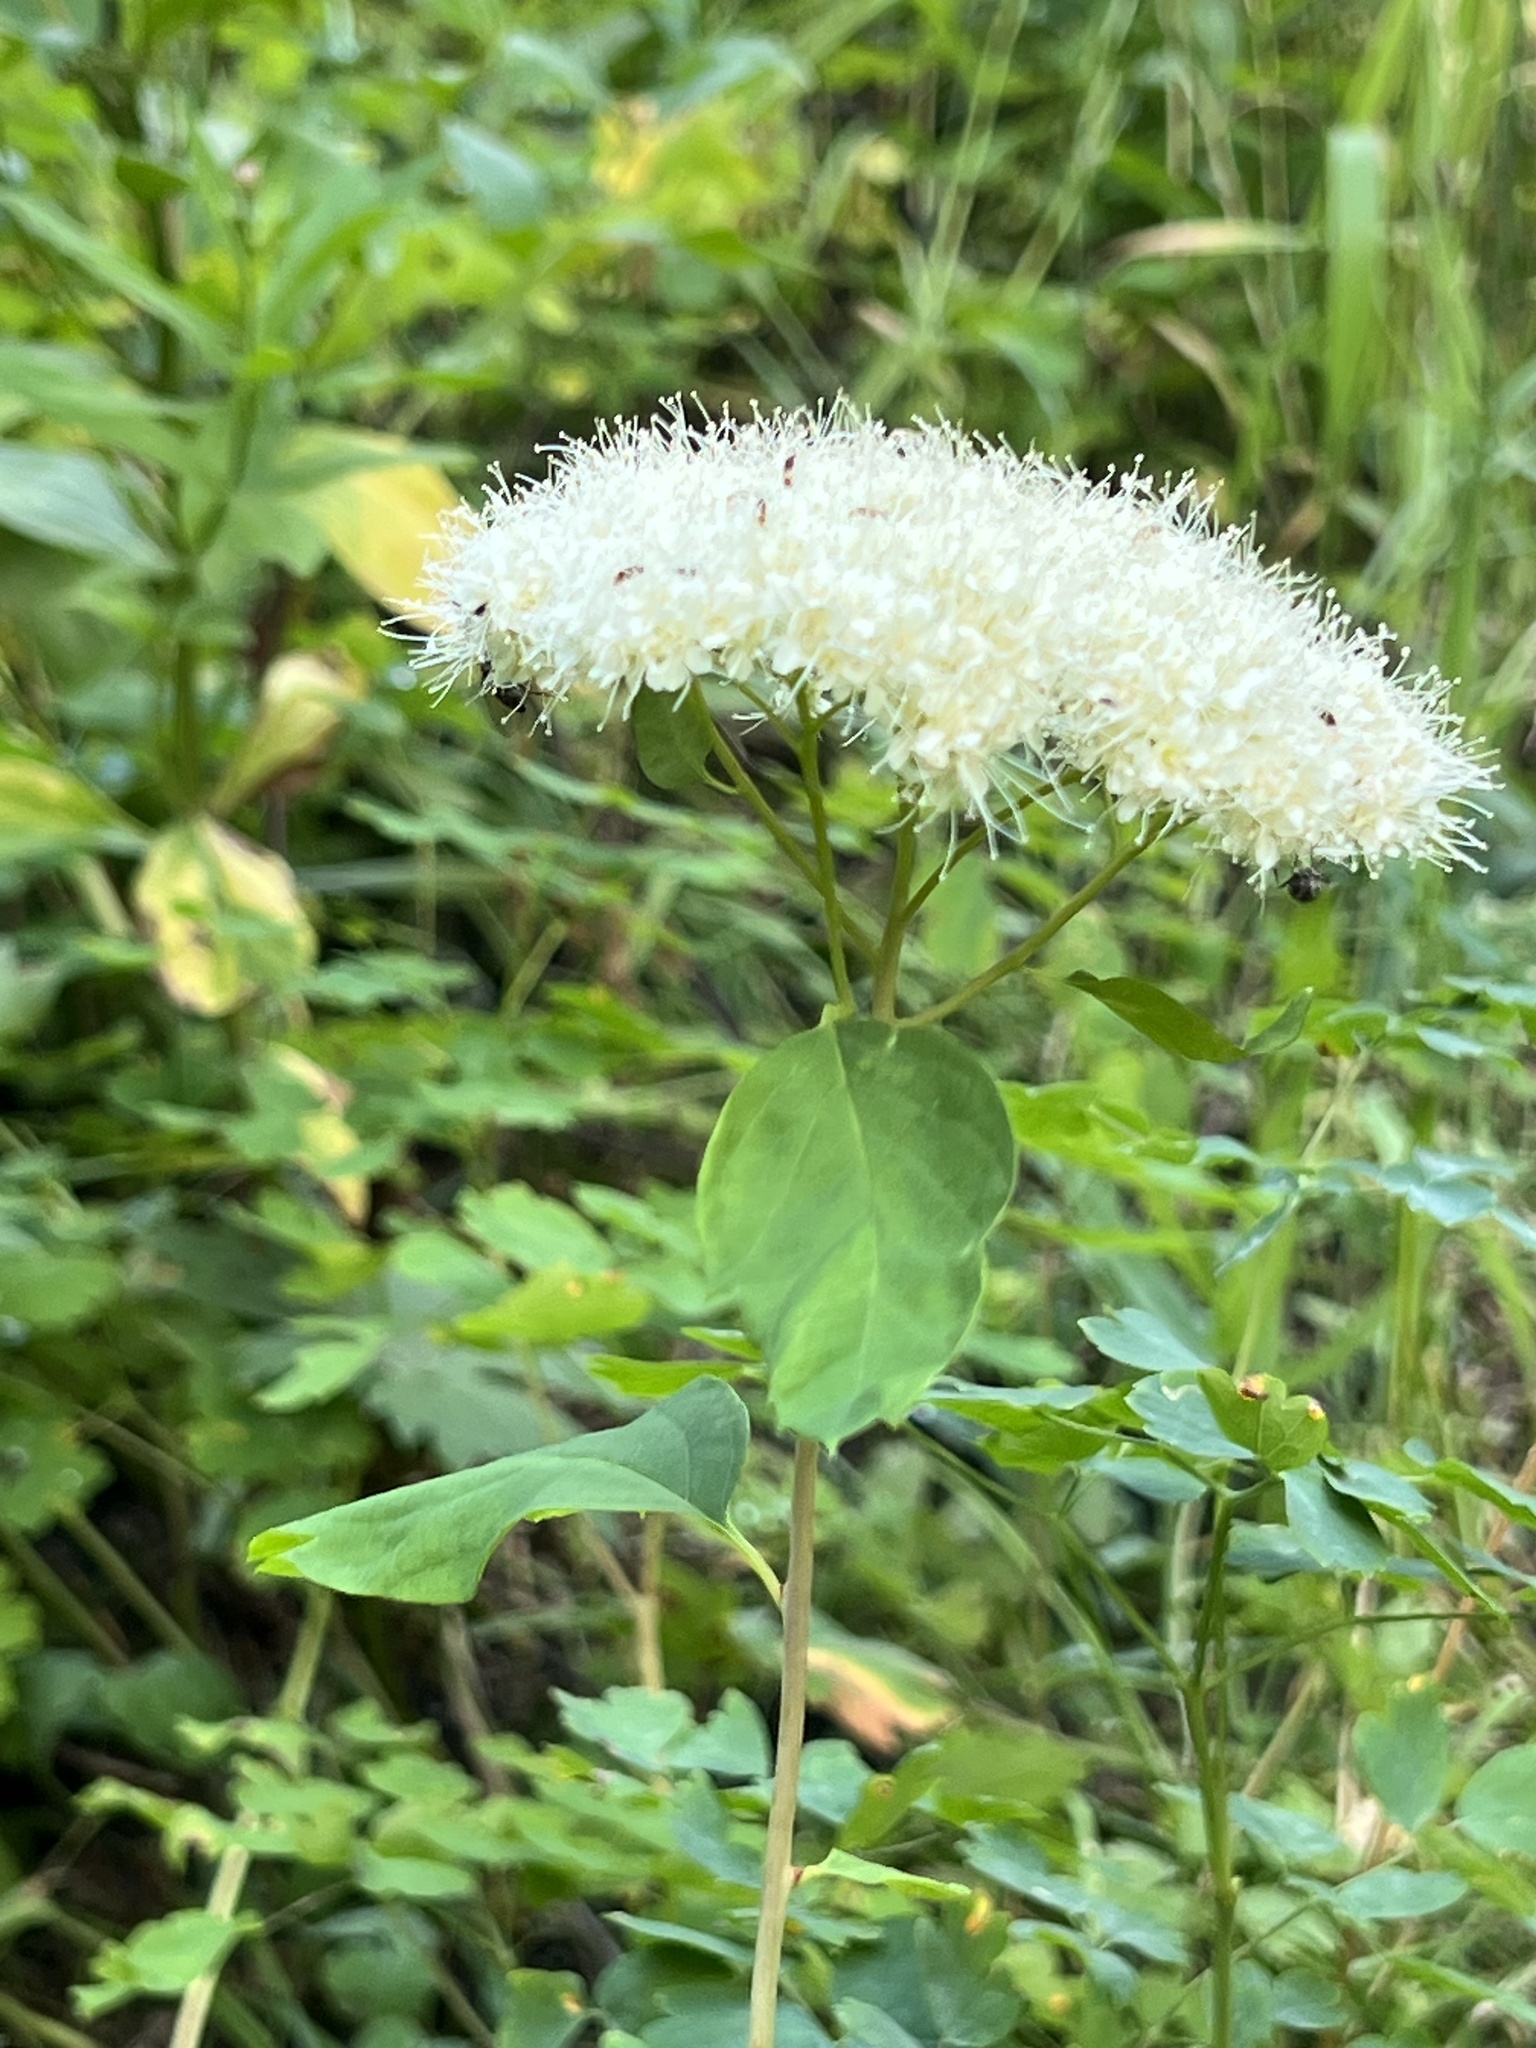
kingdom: Plantae
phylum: Tracheophyta
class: Magnoliopsida
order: Rosales
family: Rosaceae
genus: Spiraea
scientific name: Spiraea lucida
